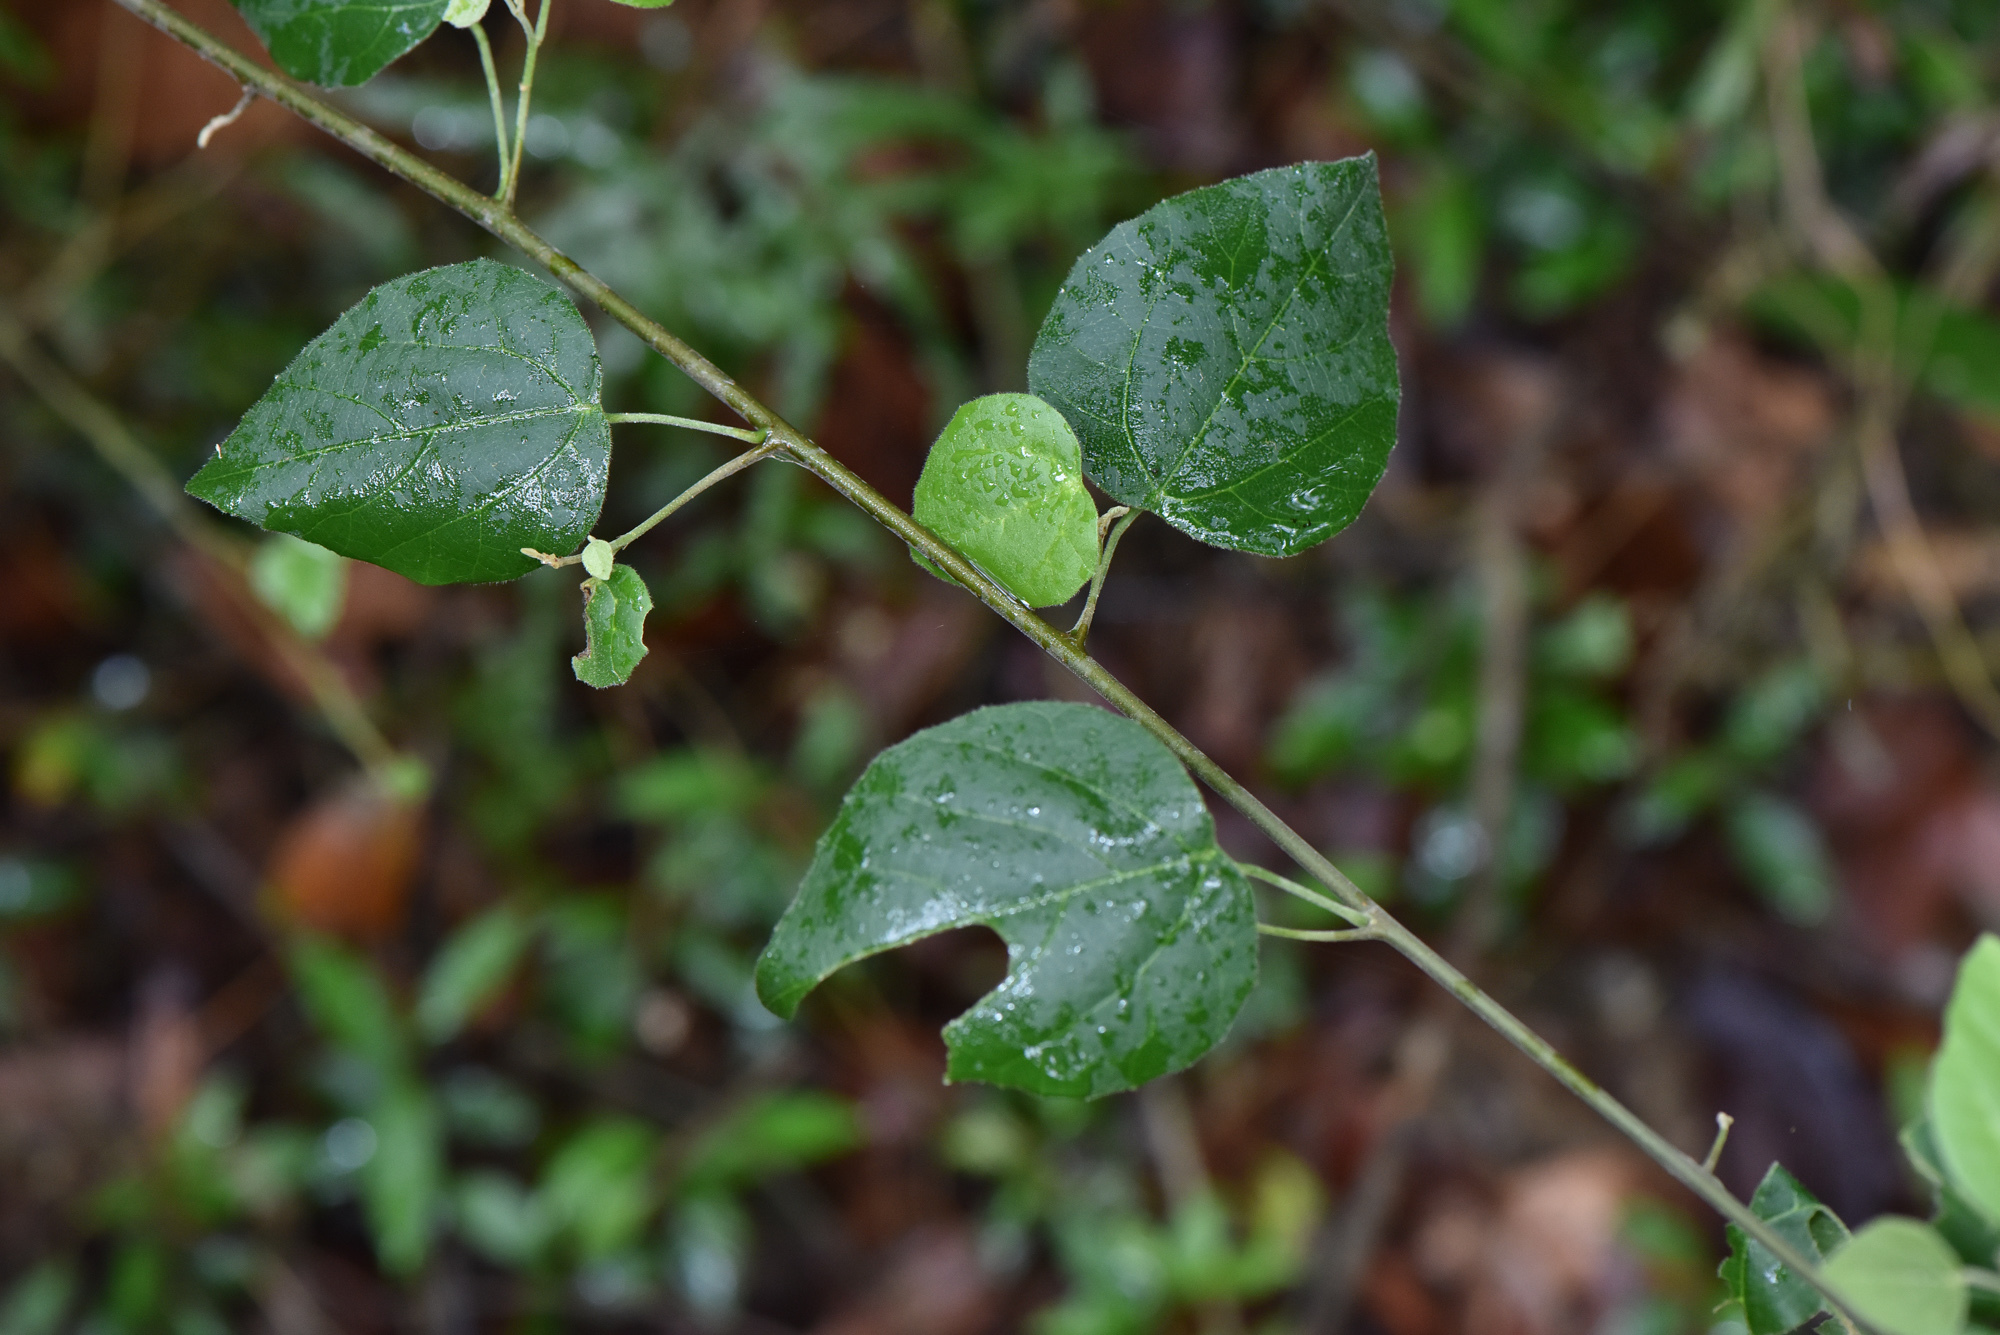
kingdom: Plantae
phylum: Tracheophyta
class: Magnoliopsida
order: Malpighiales
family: Euphorbiaceae
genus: Mallotus
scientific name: Mallotus repandus
